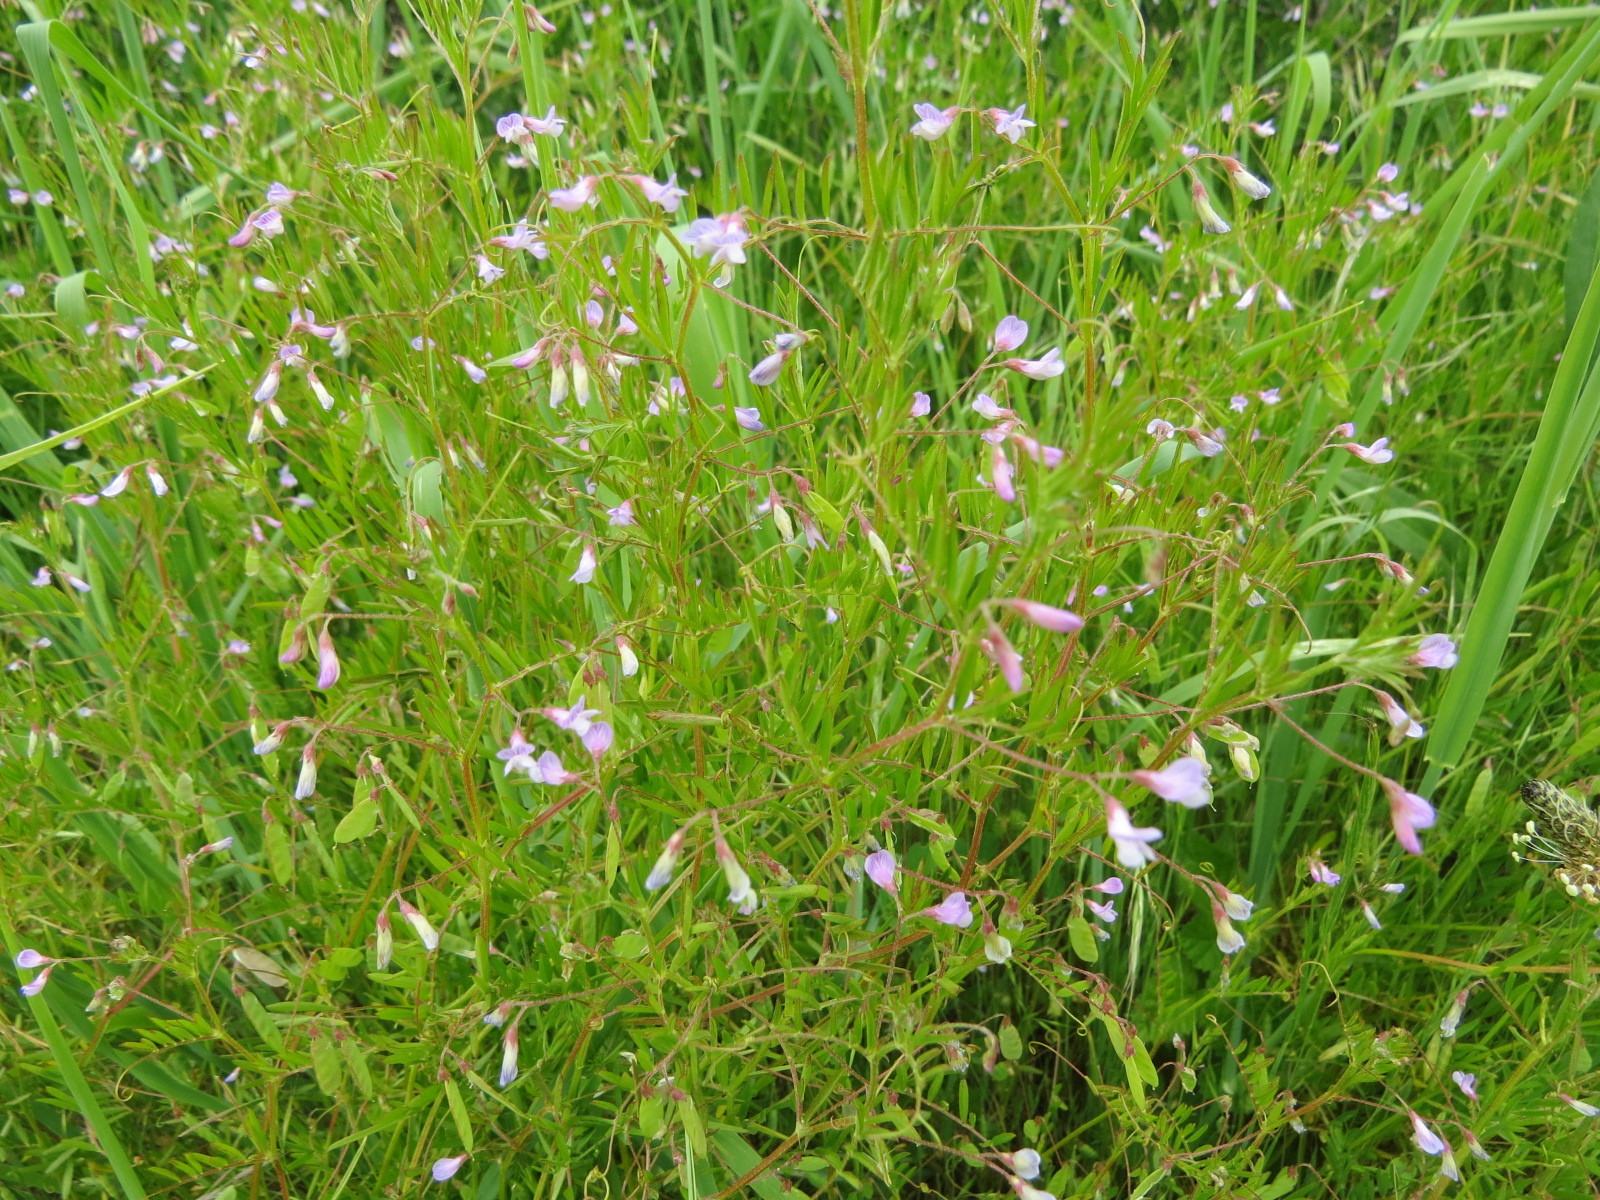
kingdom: Plantae
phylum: Tracheophyta
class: Magnoliopsida
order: Fabales
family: Fabaceae
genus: Vicia
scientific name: Vicia tetrasperma
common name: Smooth tare
